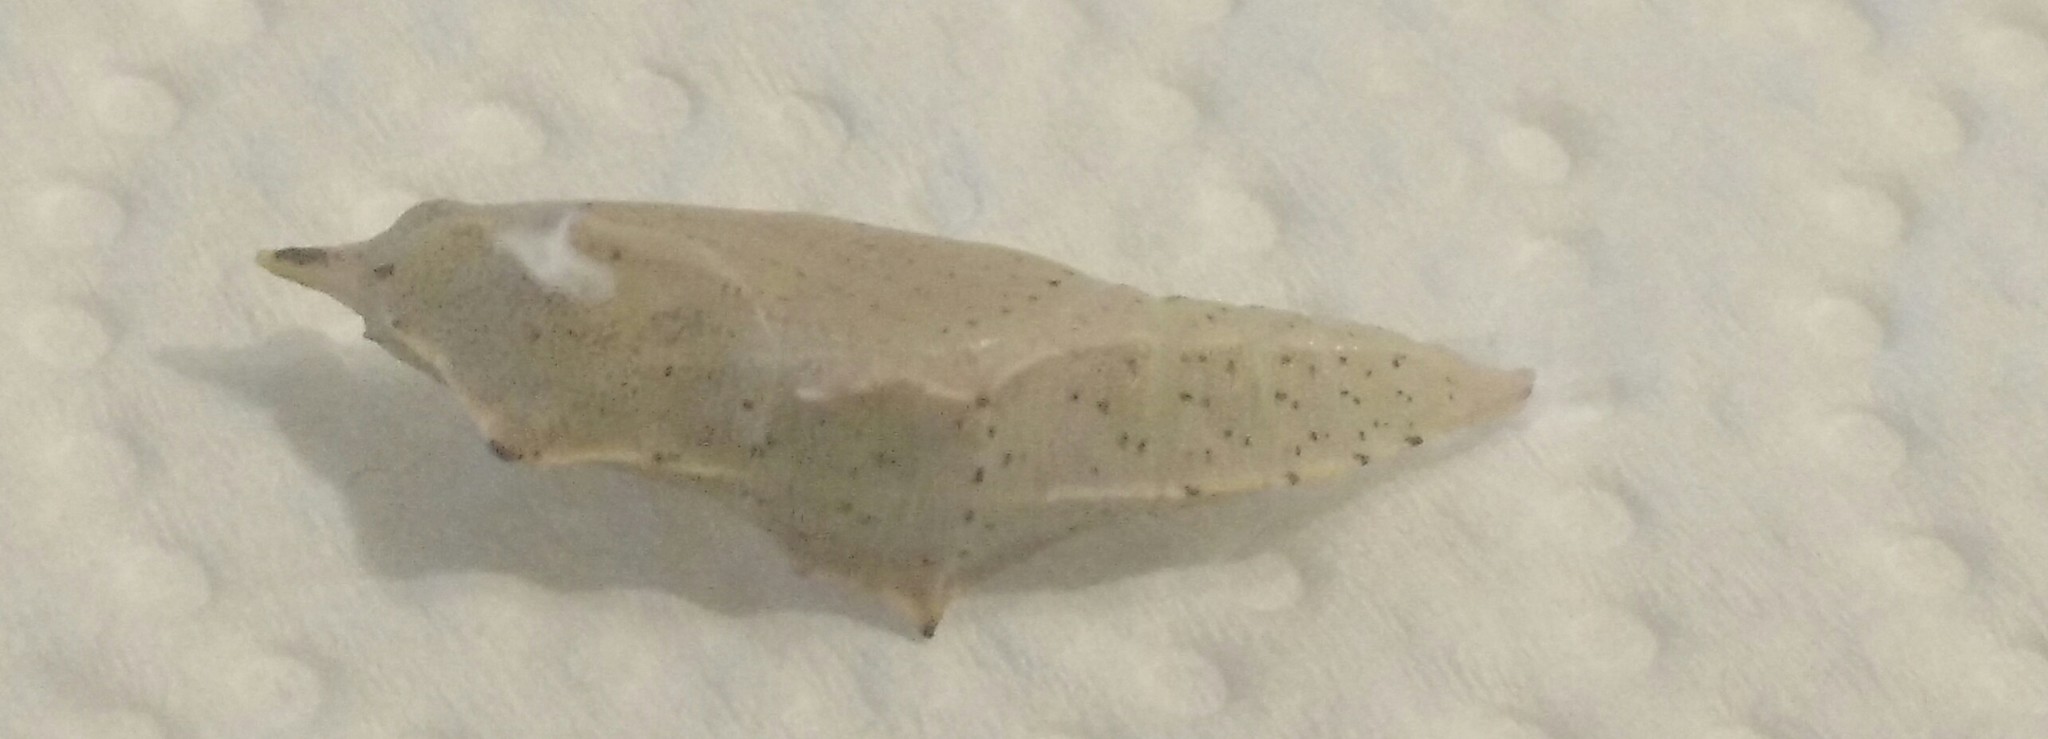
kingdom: Animalia
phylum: Arthropoda
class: Insecta
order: Lepidoptera
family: Pieridae
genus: Pieris
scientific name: Pieris rapae
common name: Small white
